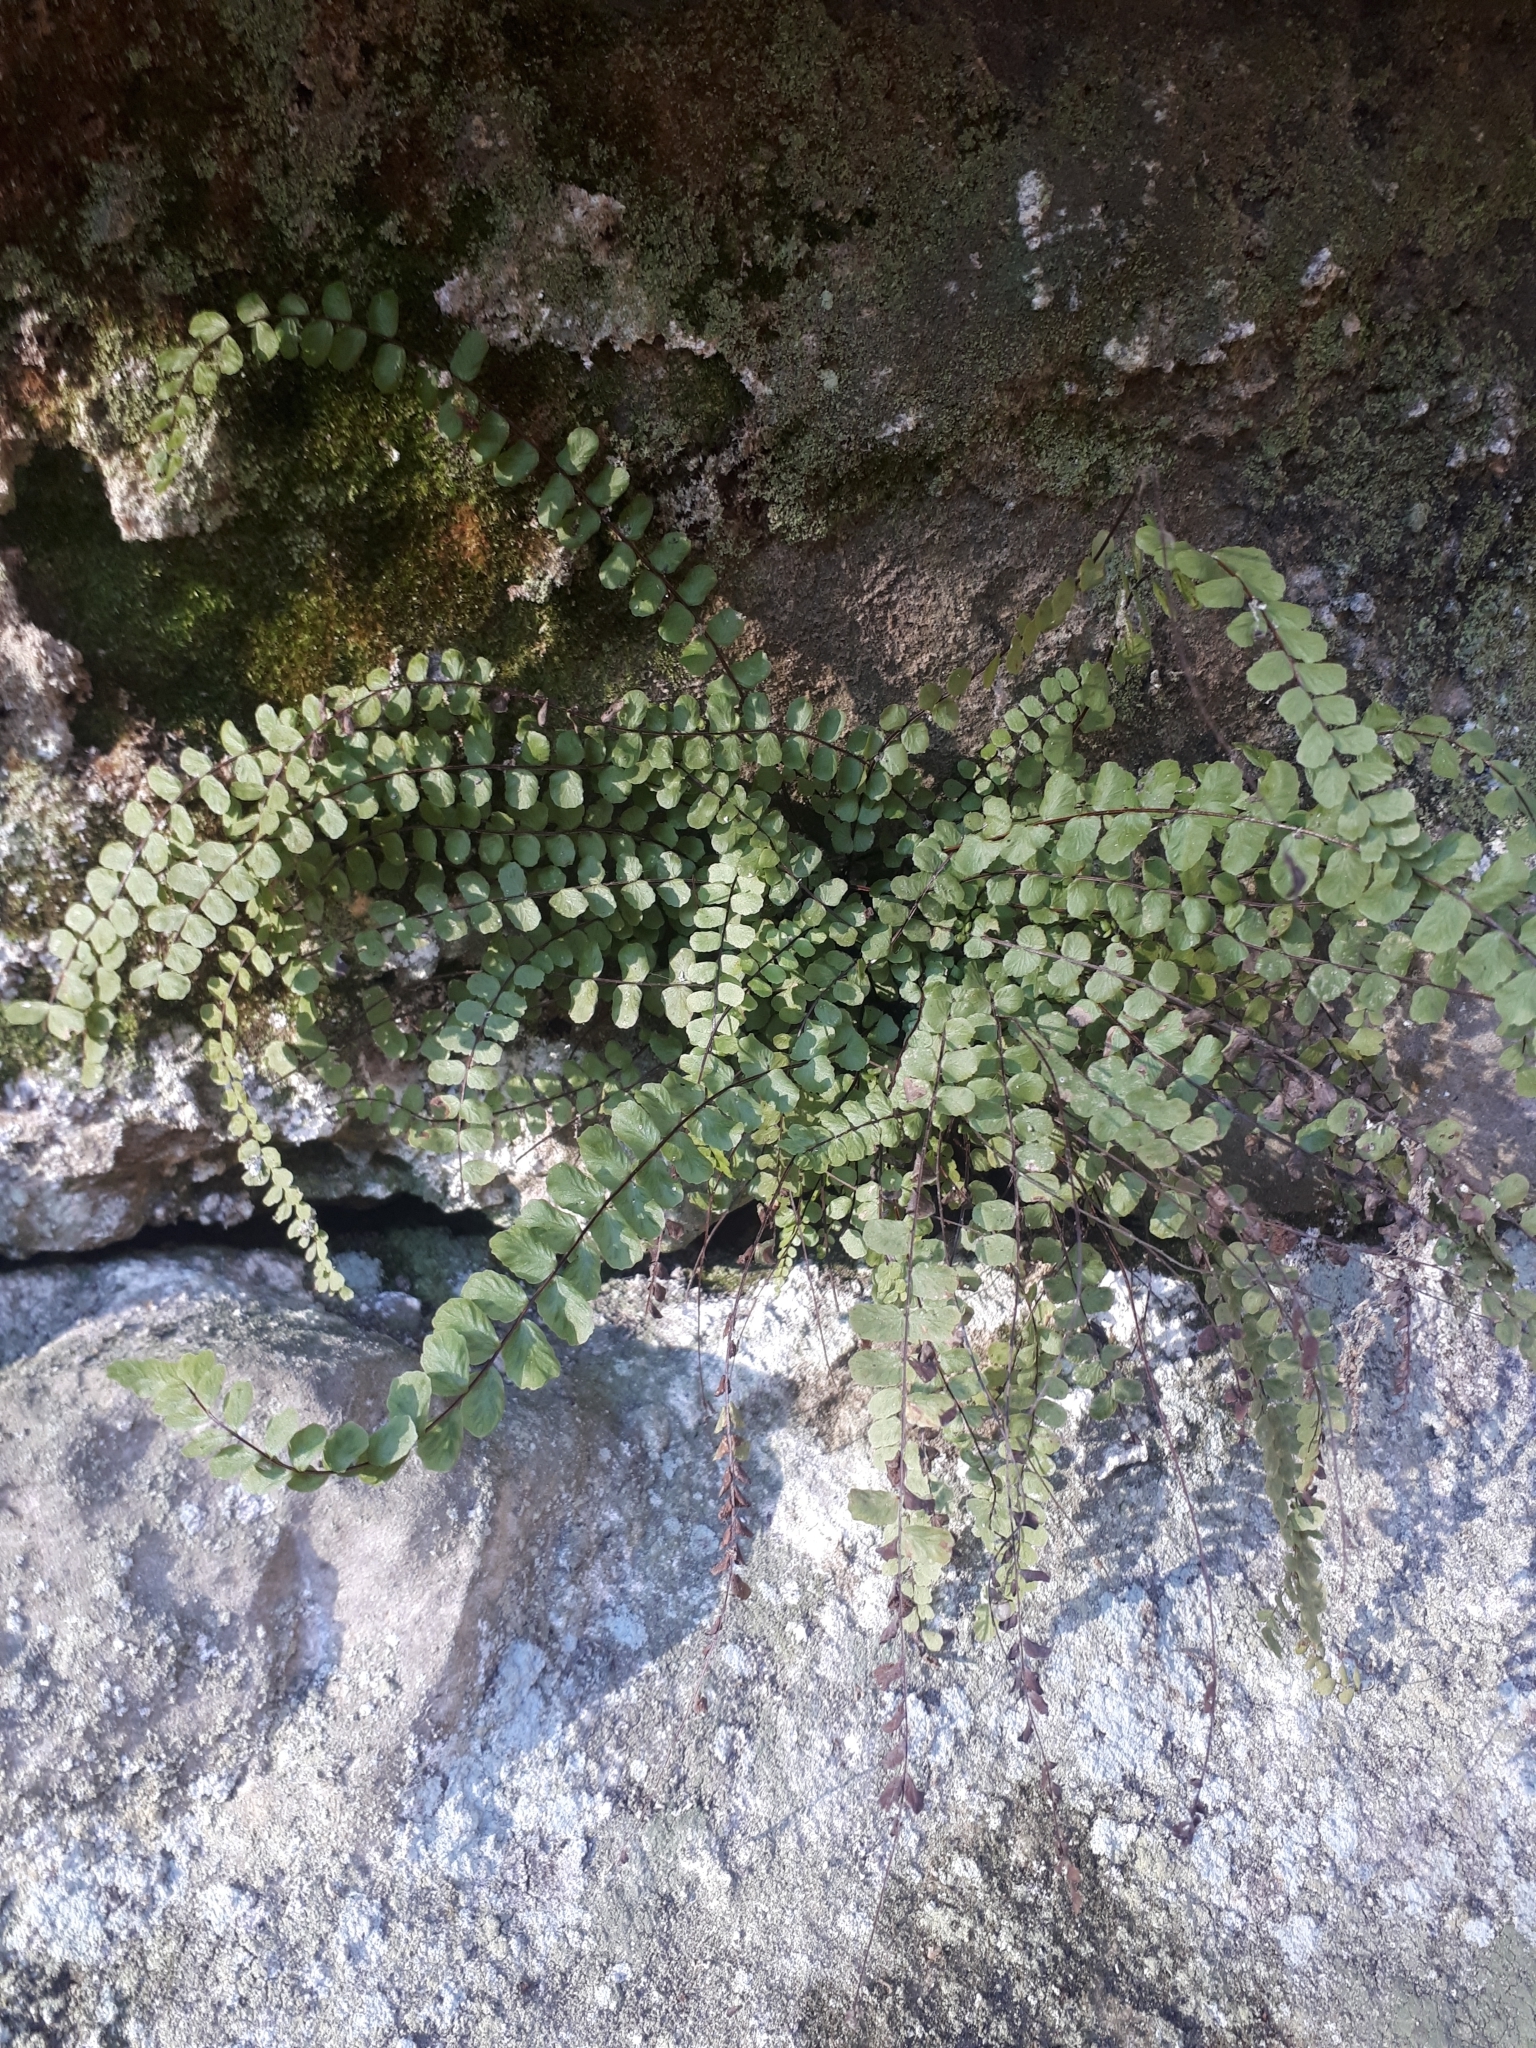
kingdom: Plantae
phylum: Tracheophyta
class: Polypodiopsida
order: Polypodiales
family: Aspleniaceae
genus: Asplenium
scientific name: Asplenium trichomanes
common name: Maidenhair spleenwort
